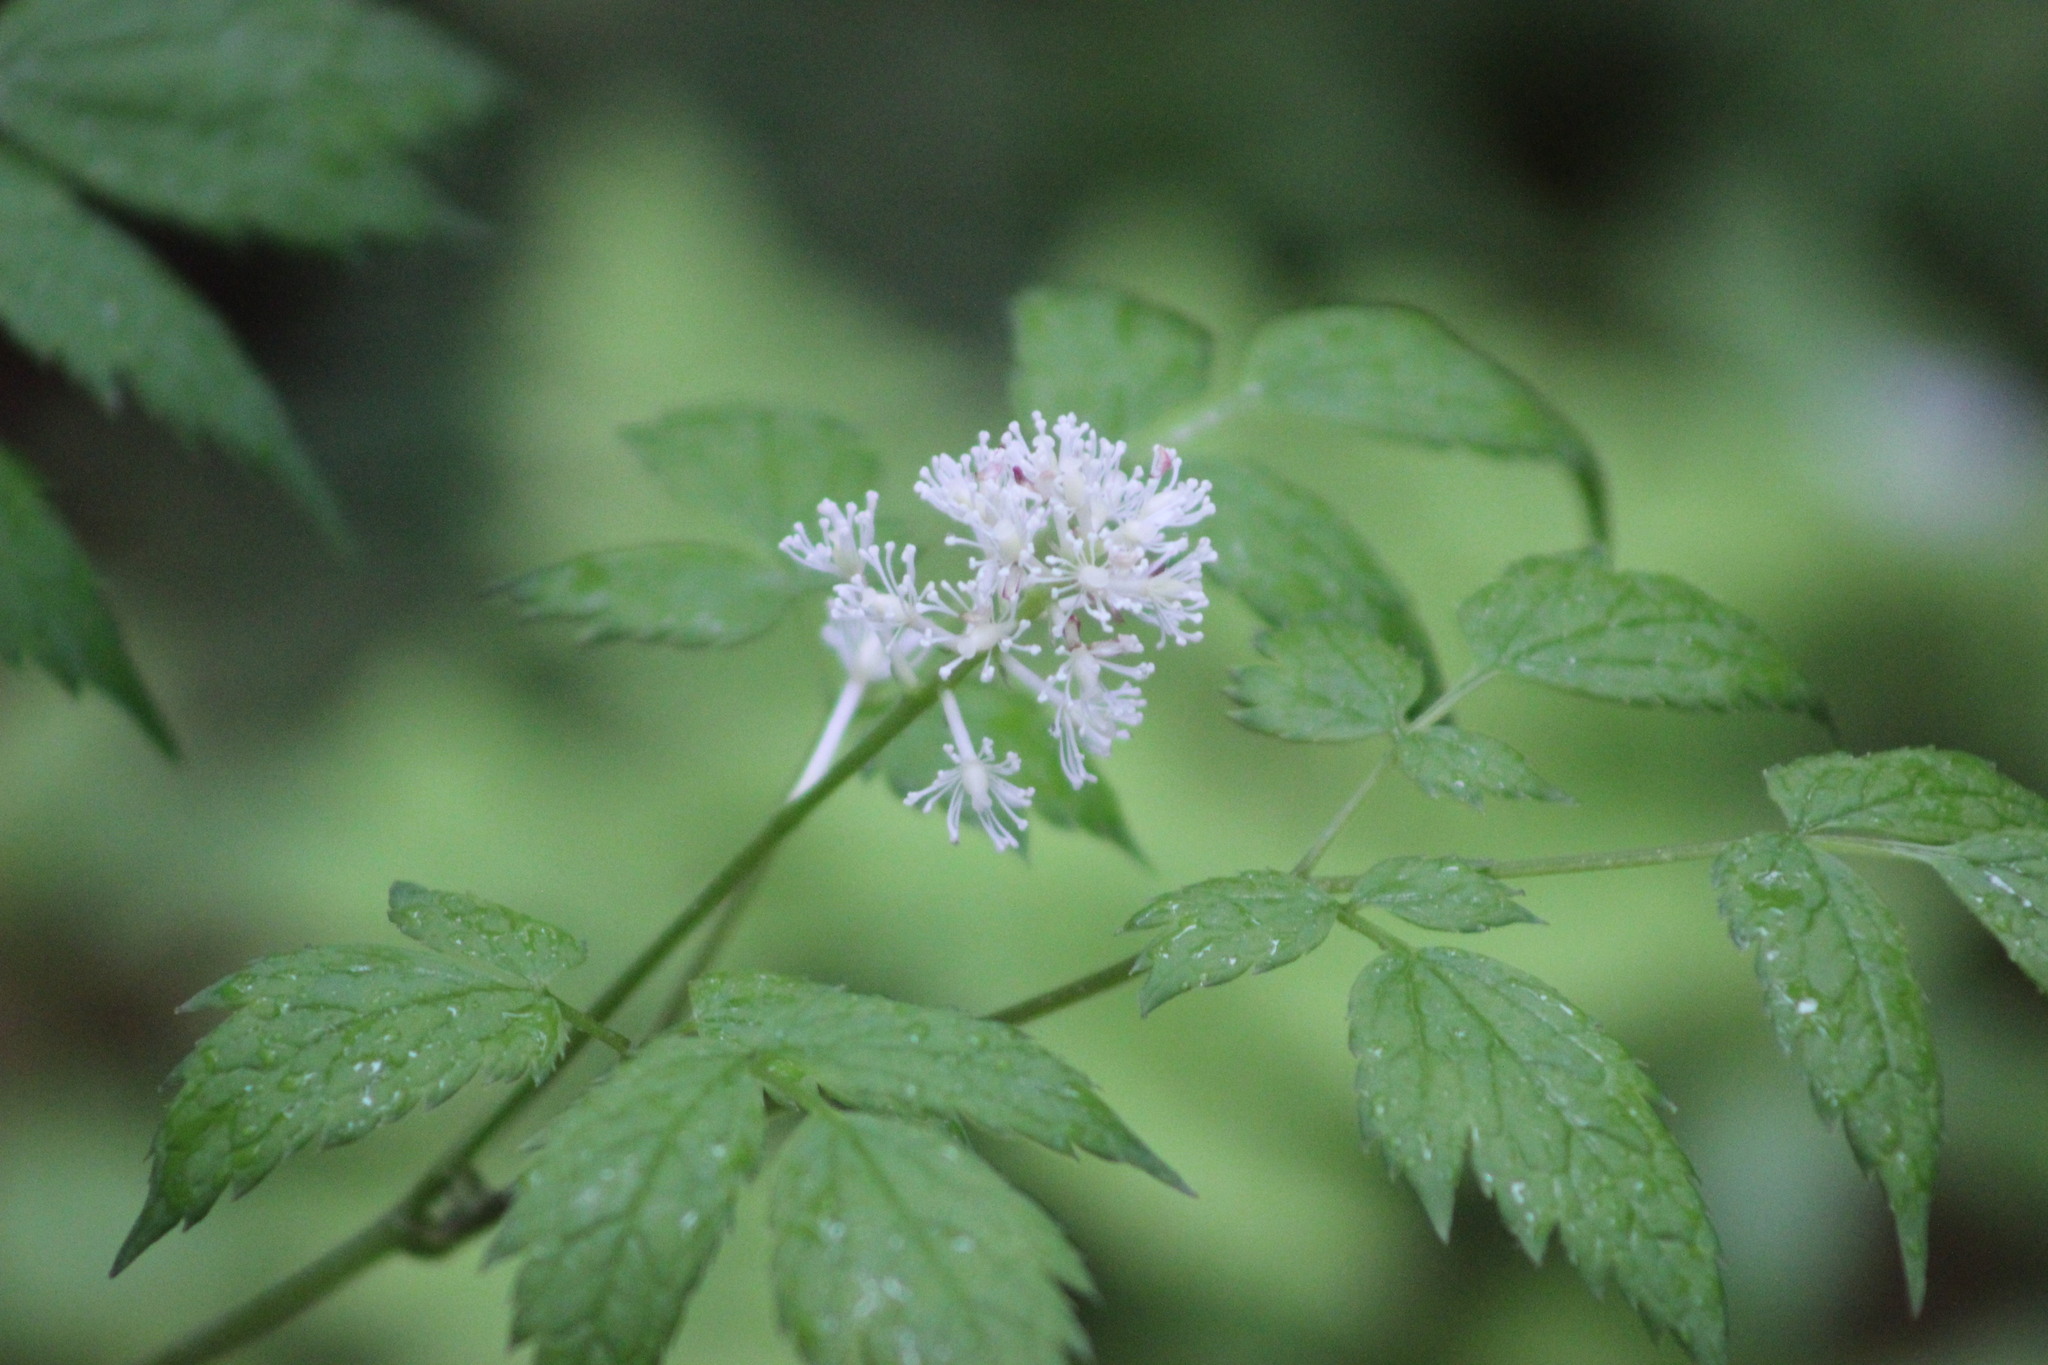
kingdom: Plantae
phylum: Tracheophyta
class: Magnoliopsida
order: Ranunculales
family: Ranunculaceae
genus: Actaea
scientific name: Actaea erythrocarpa
